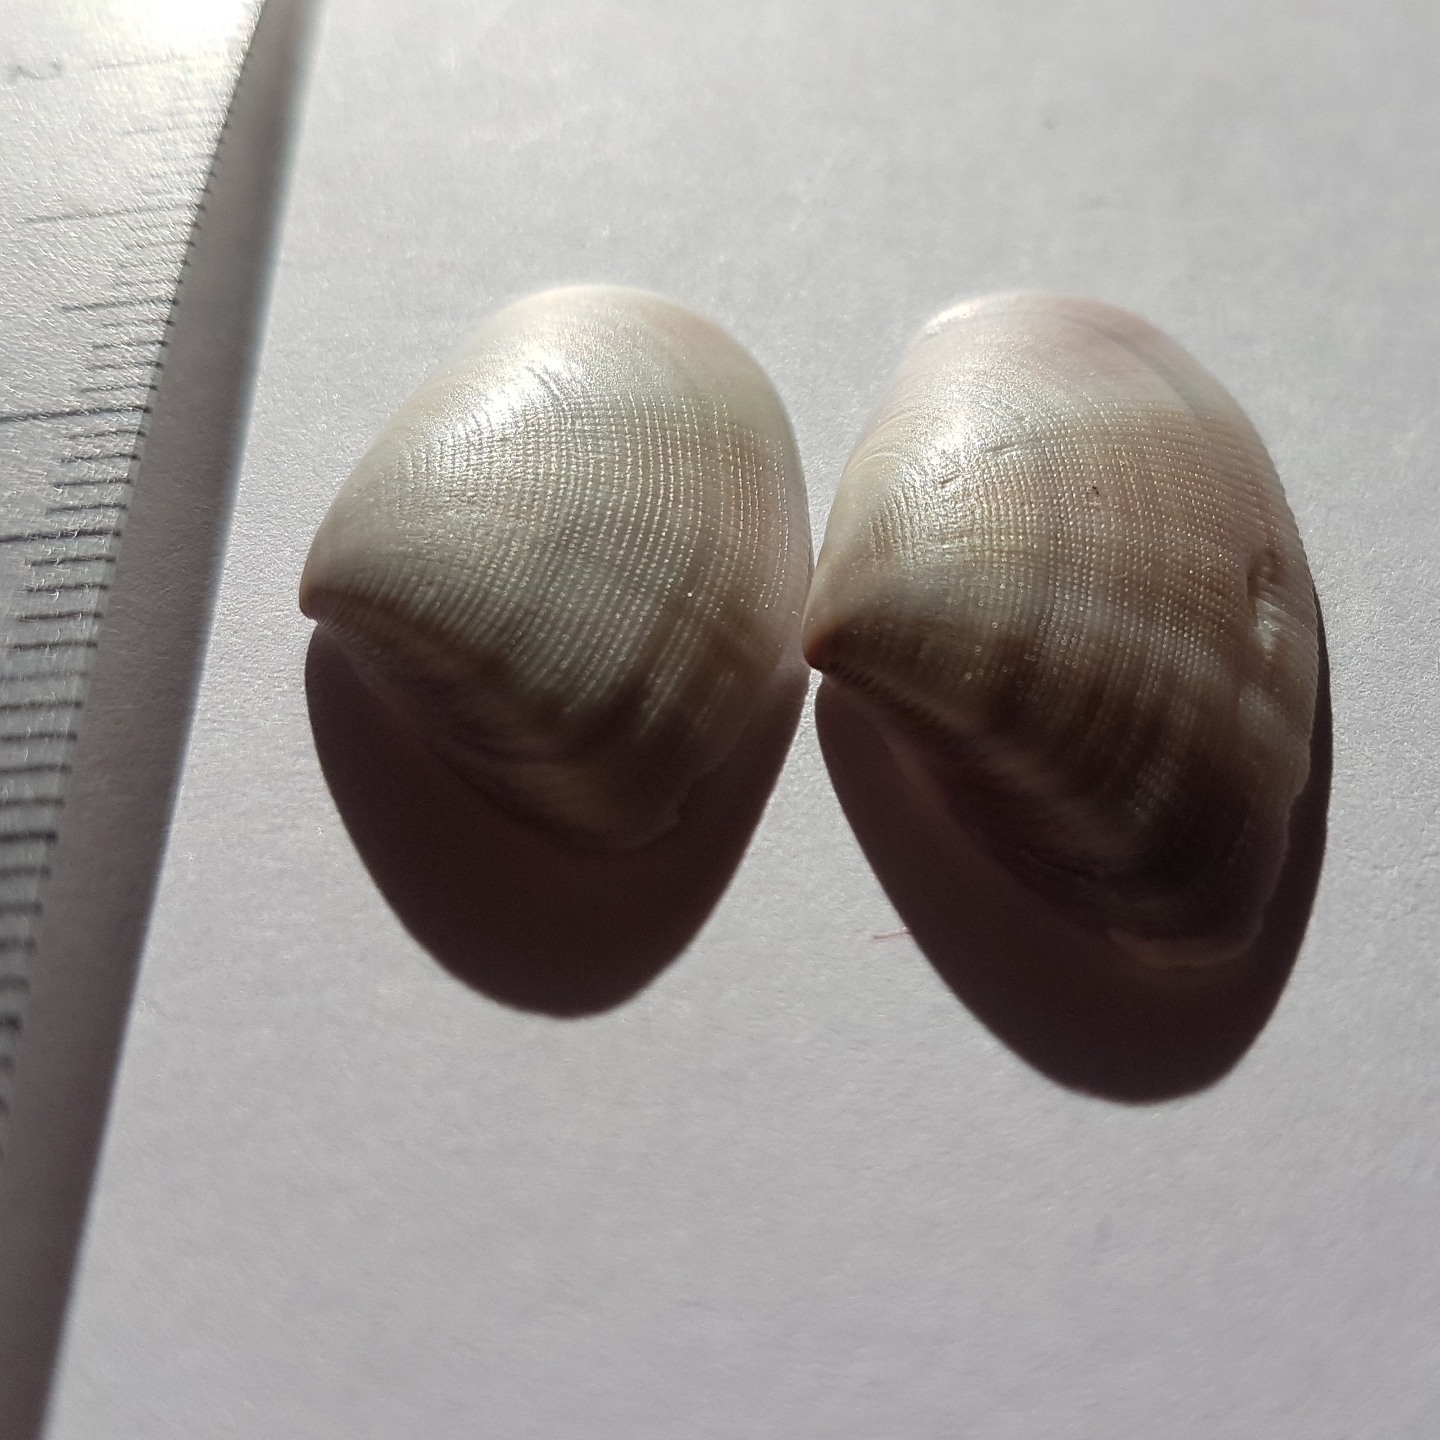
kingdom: Animalia
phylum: Mollusca
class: Bivalvia
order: Cardiida
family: Donacidae
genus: Donax
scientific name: Donax semistriatus
